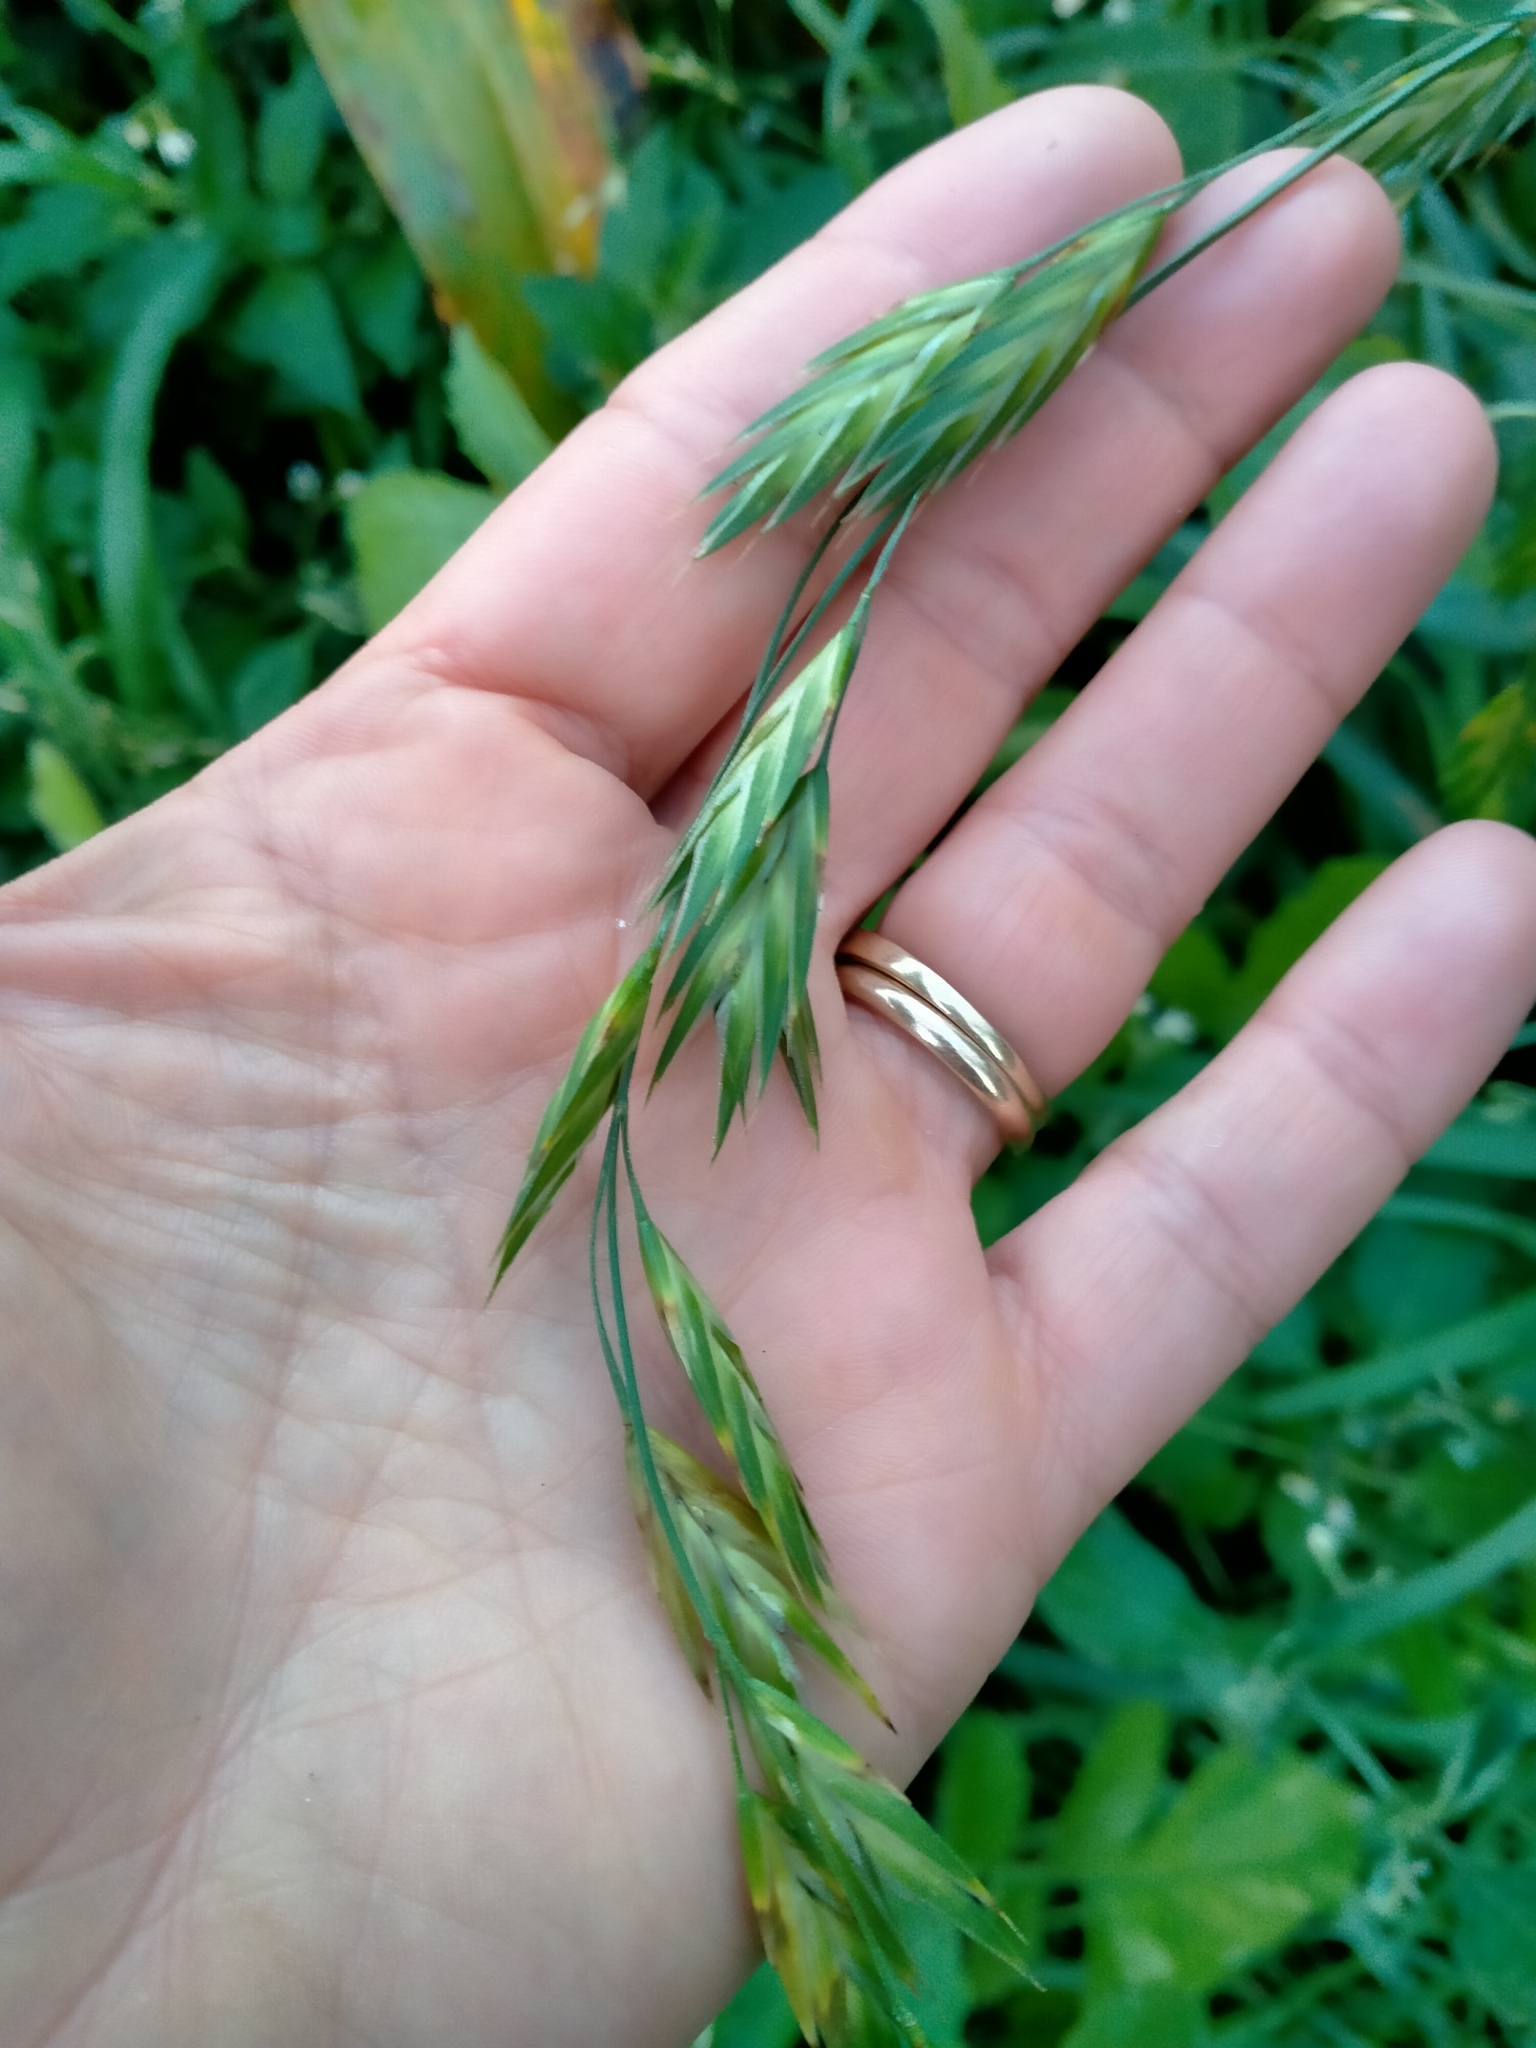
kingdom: Plantae
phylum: Tracheophyta
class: Liliopsida
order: Poales
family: Poaceae
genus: Bromus
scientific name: Bromus catharticus
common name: Rescuegrass
